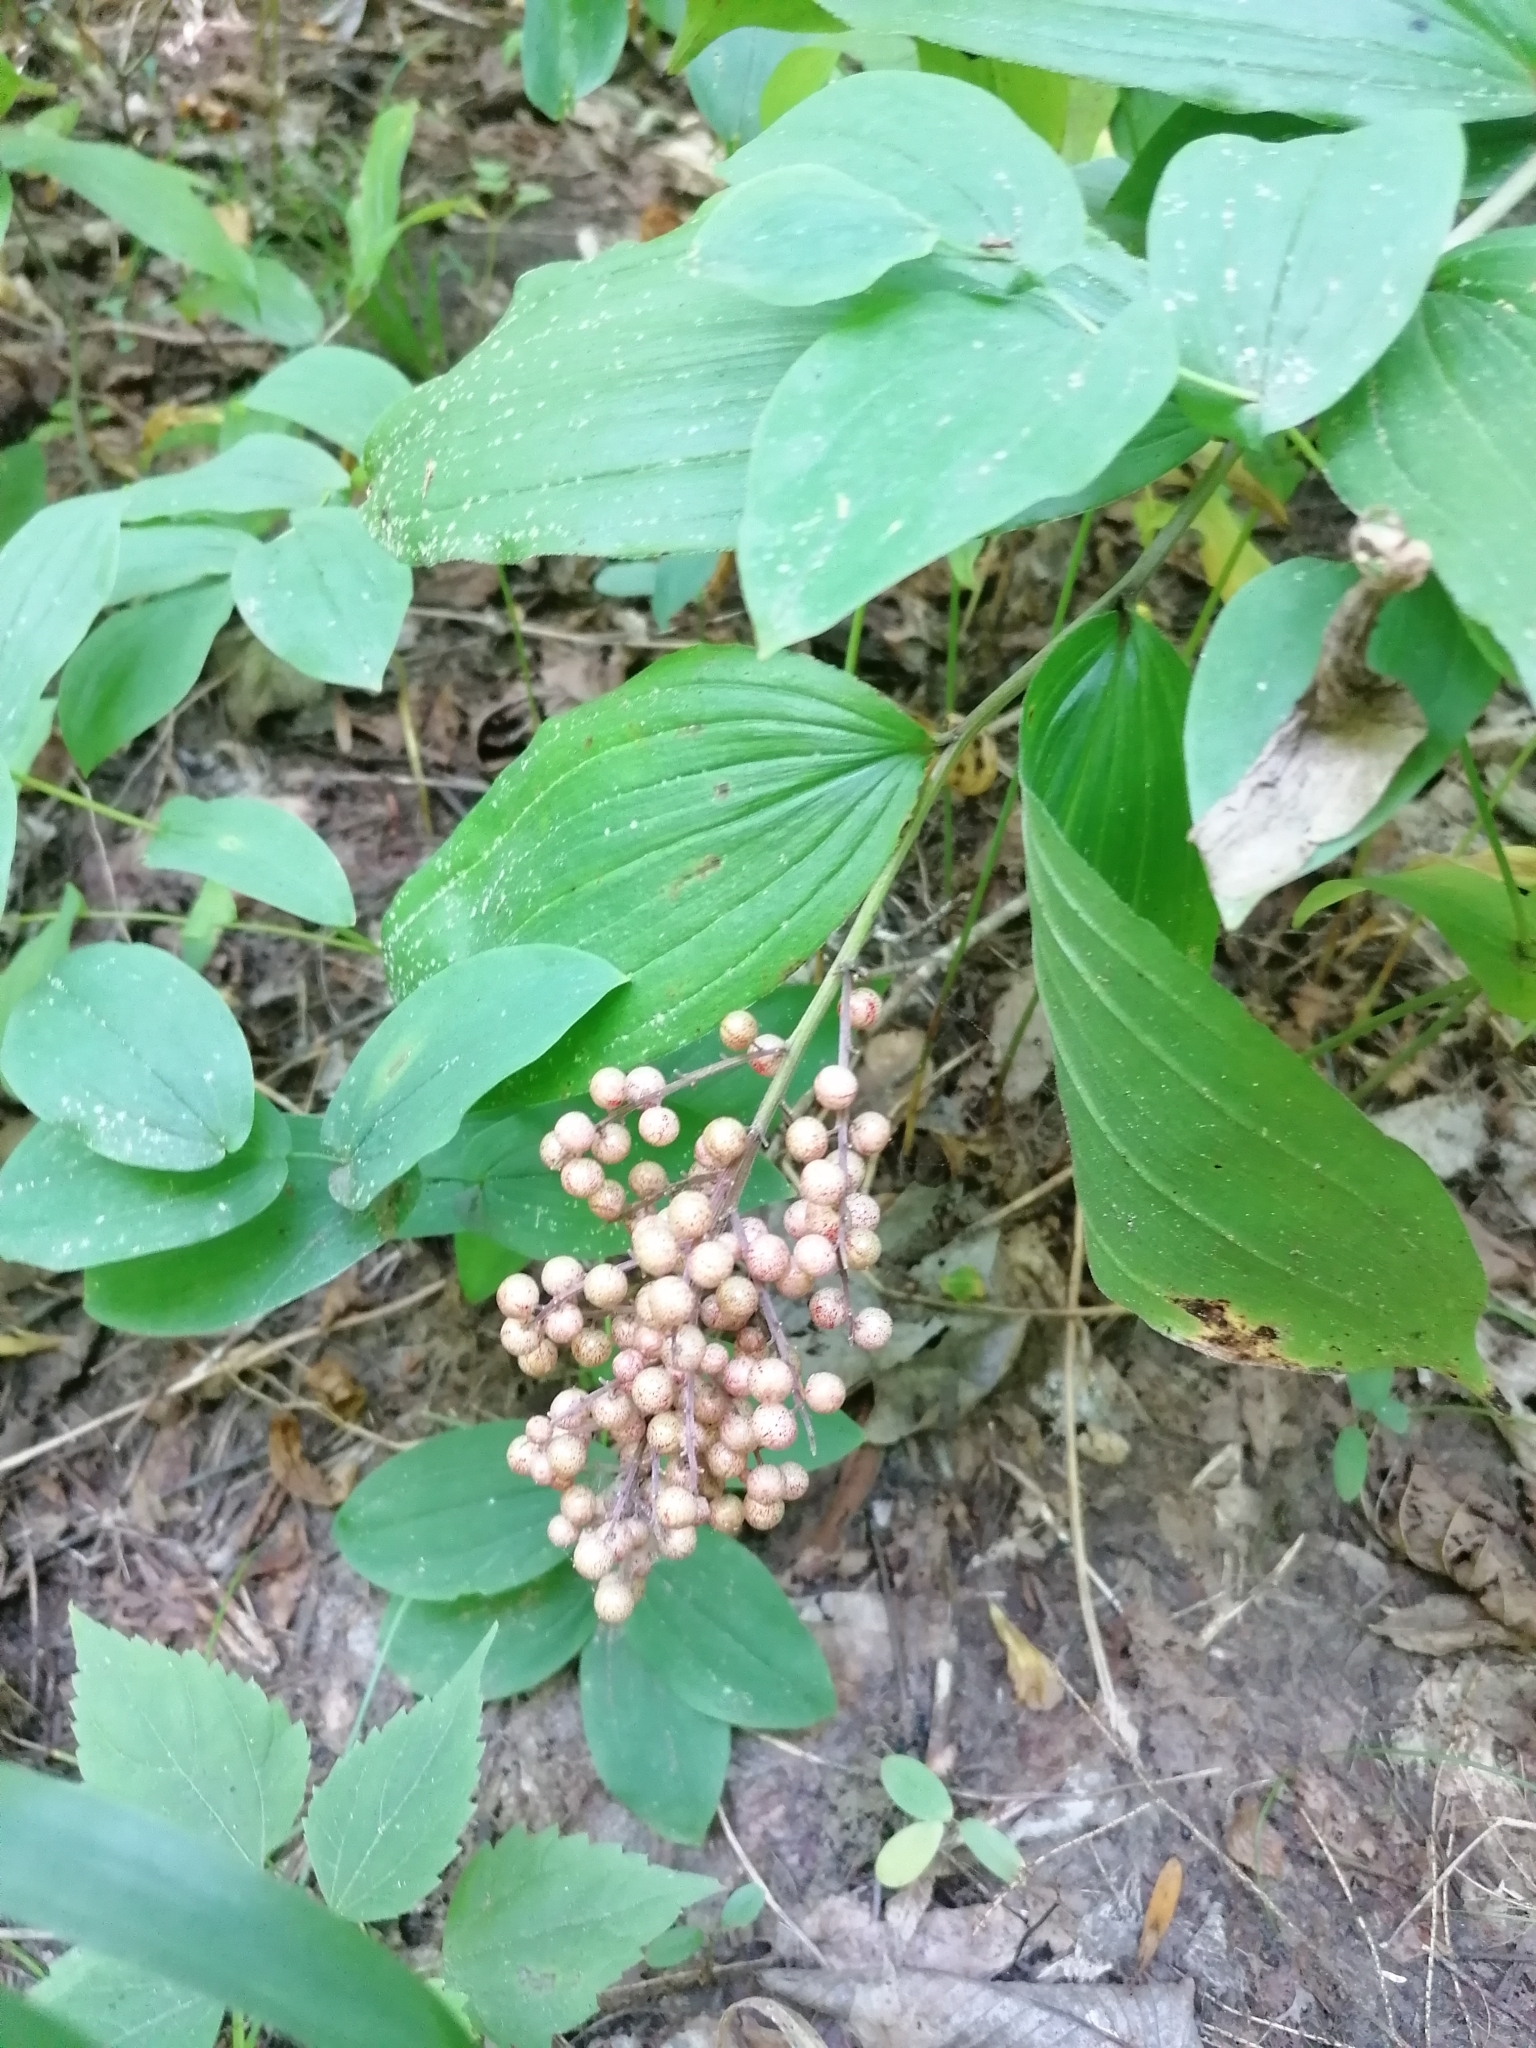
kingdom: Plantae
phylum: Tracheophyta
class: Liliopsida
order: Asparagales
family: Asparagaceae
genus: Maianthemum
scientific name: Maianthemum racemosum
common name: False spikenard
